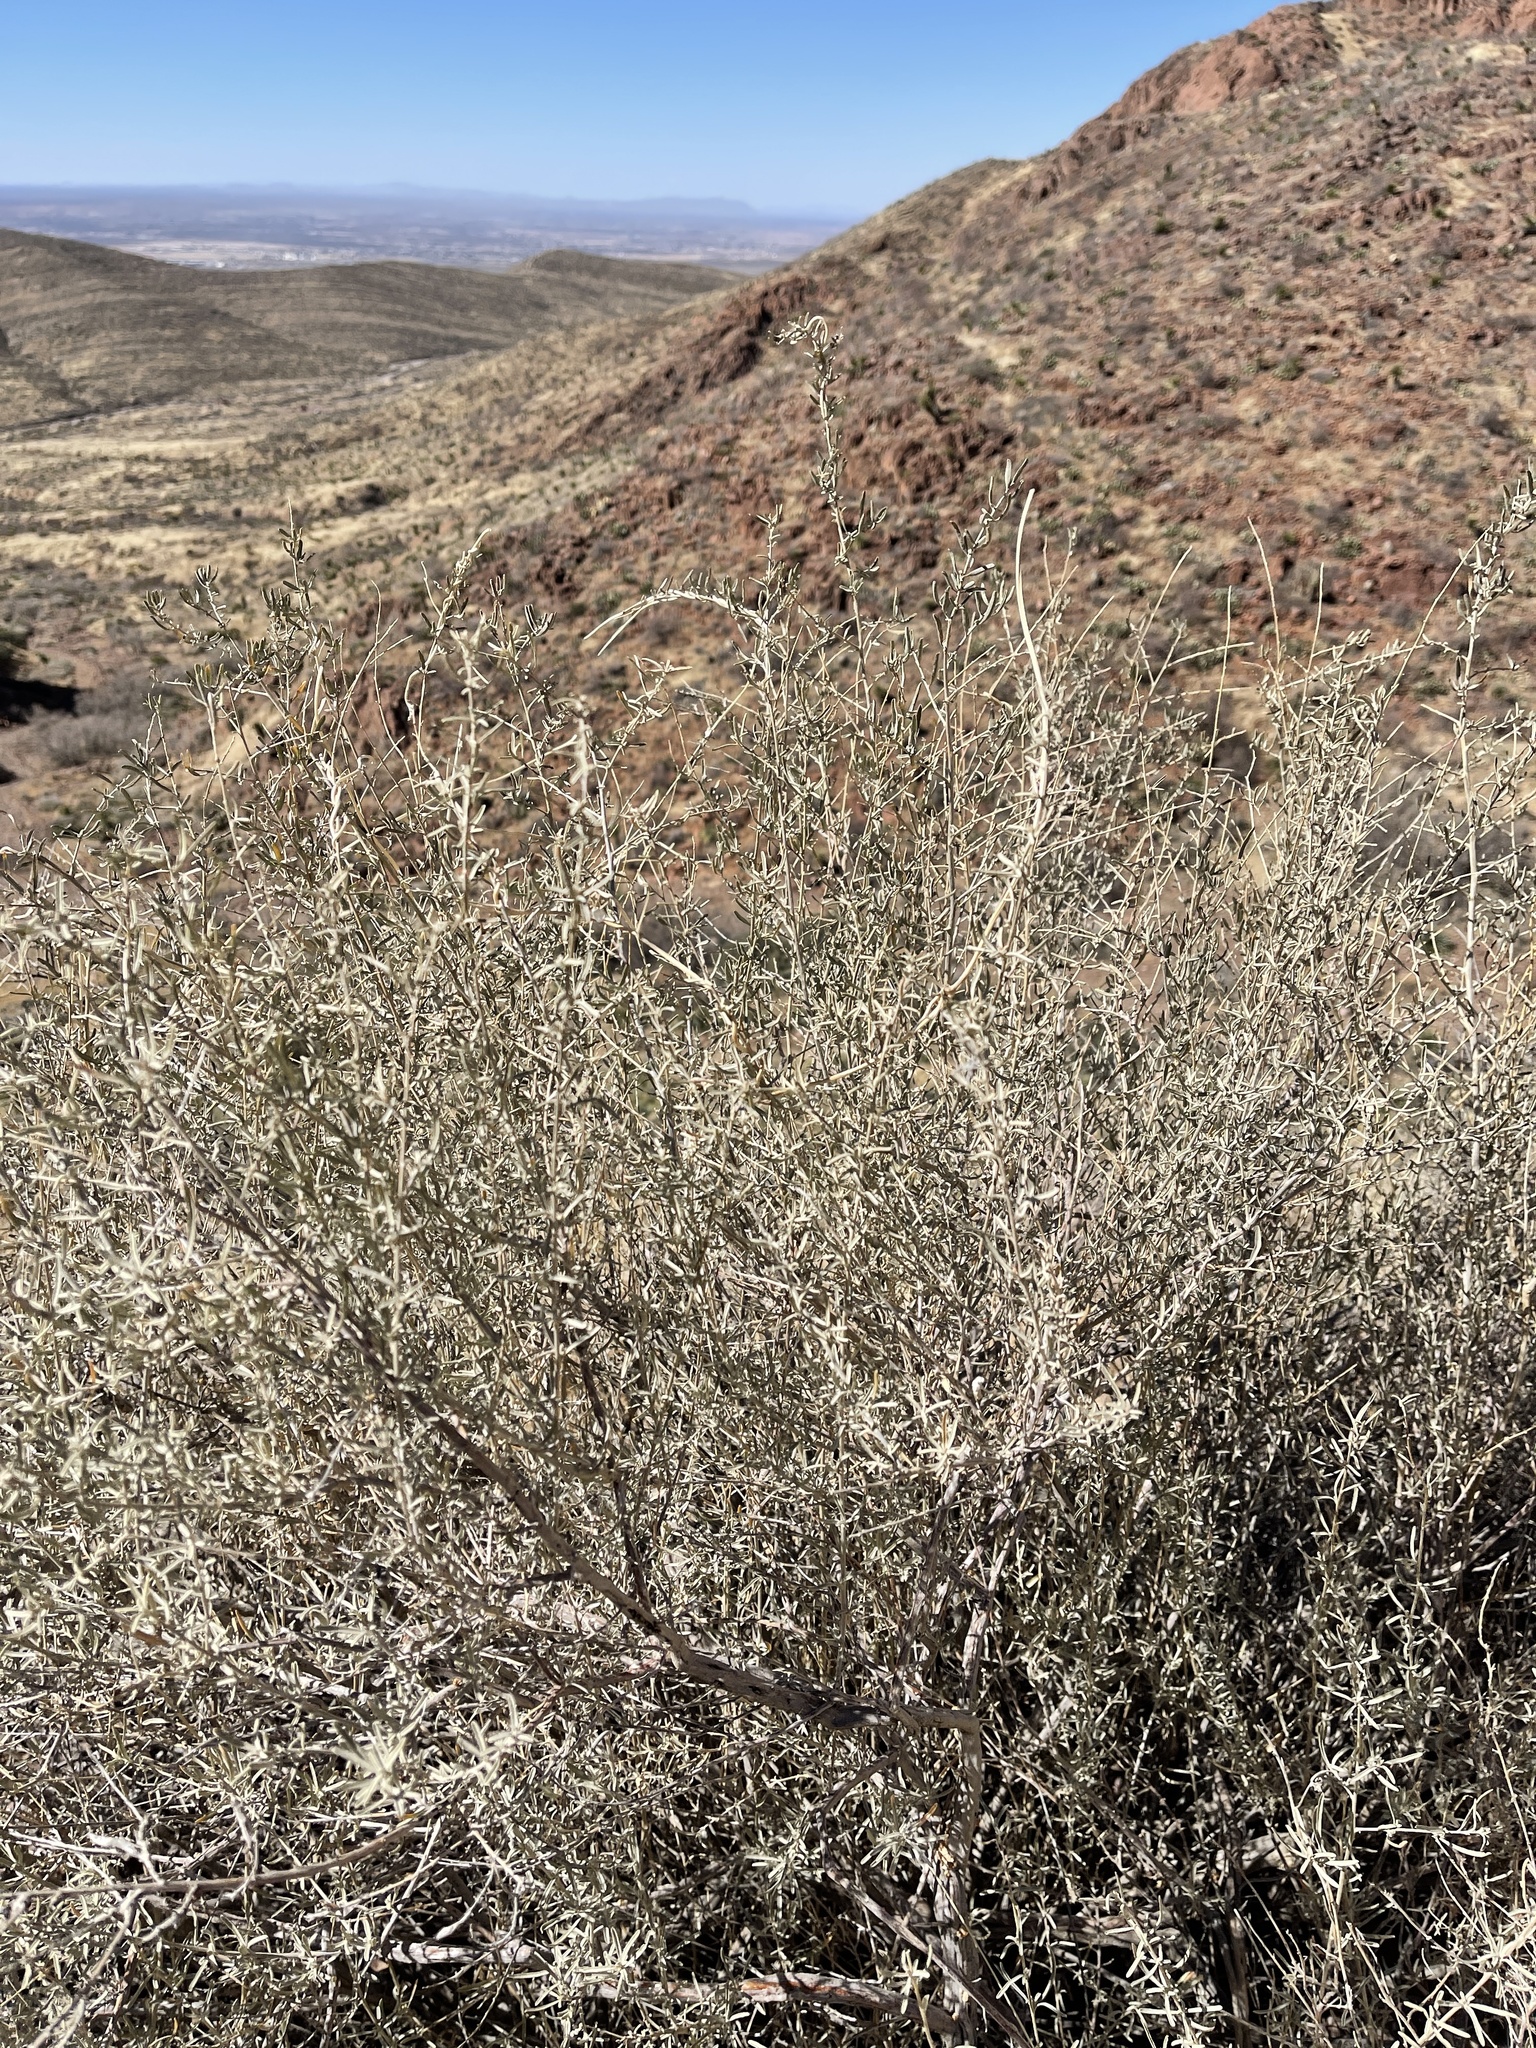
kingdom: Plantae
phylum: Tracheophyta
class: Magnoliopsida
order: Caryophyllales
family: Amaranthaceae
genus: Atriplex
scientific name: Atriplex canescens
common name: Four-wing saltbush
